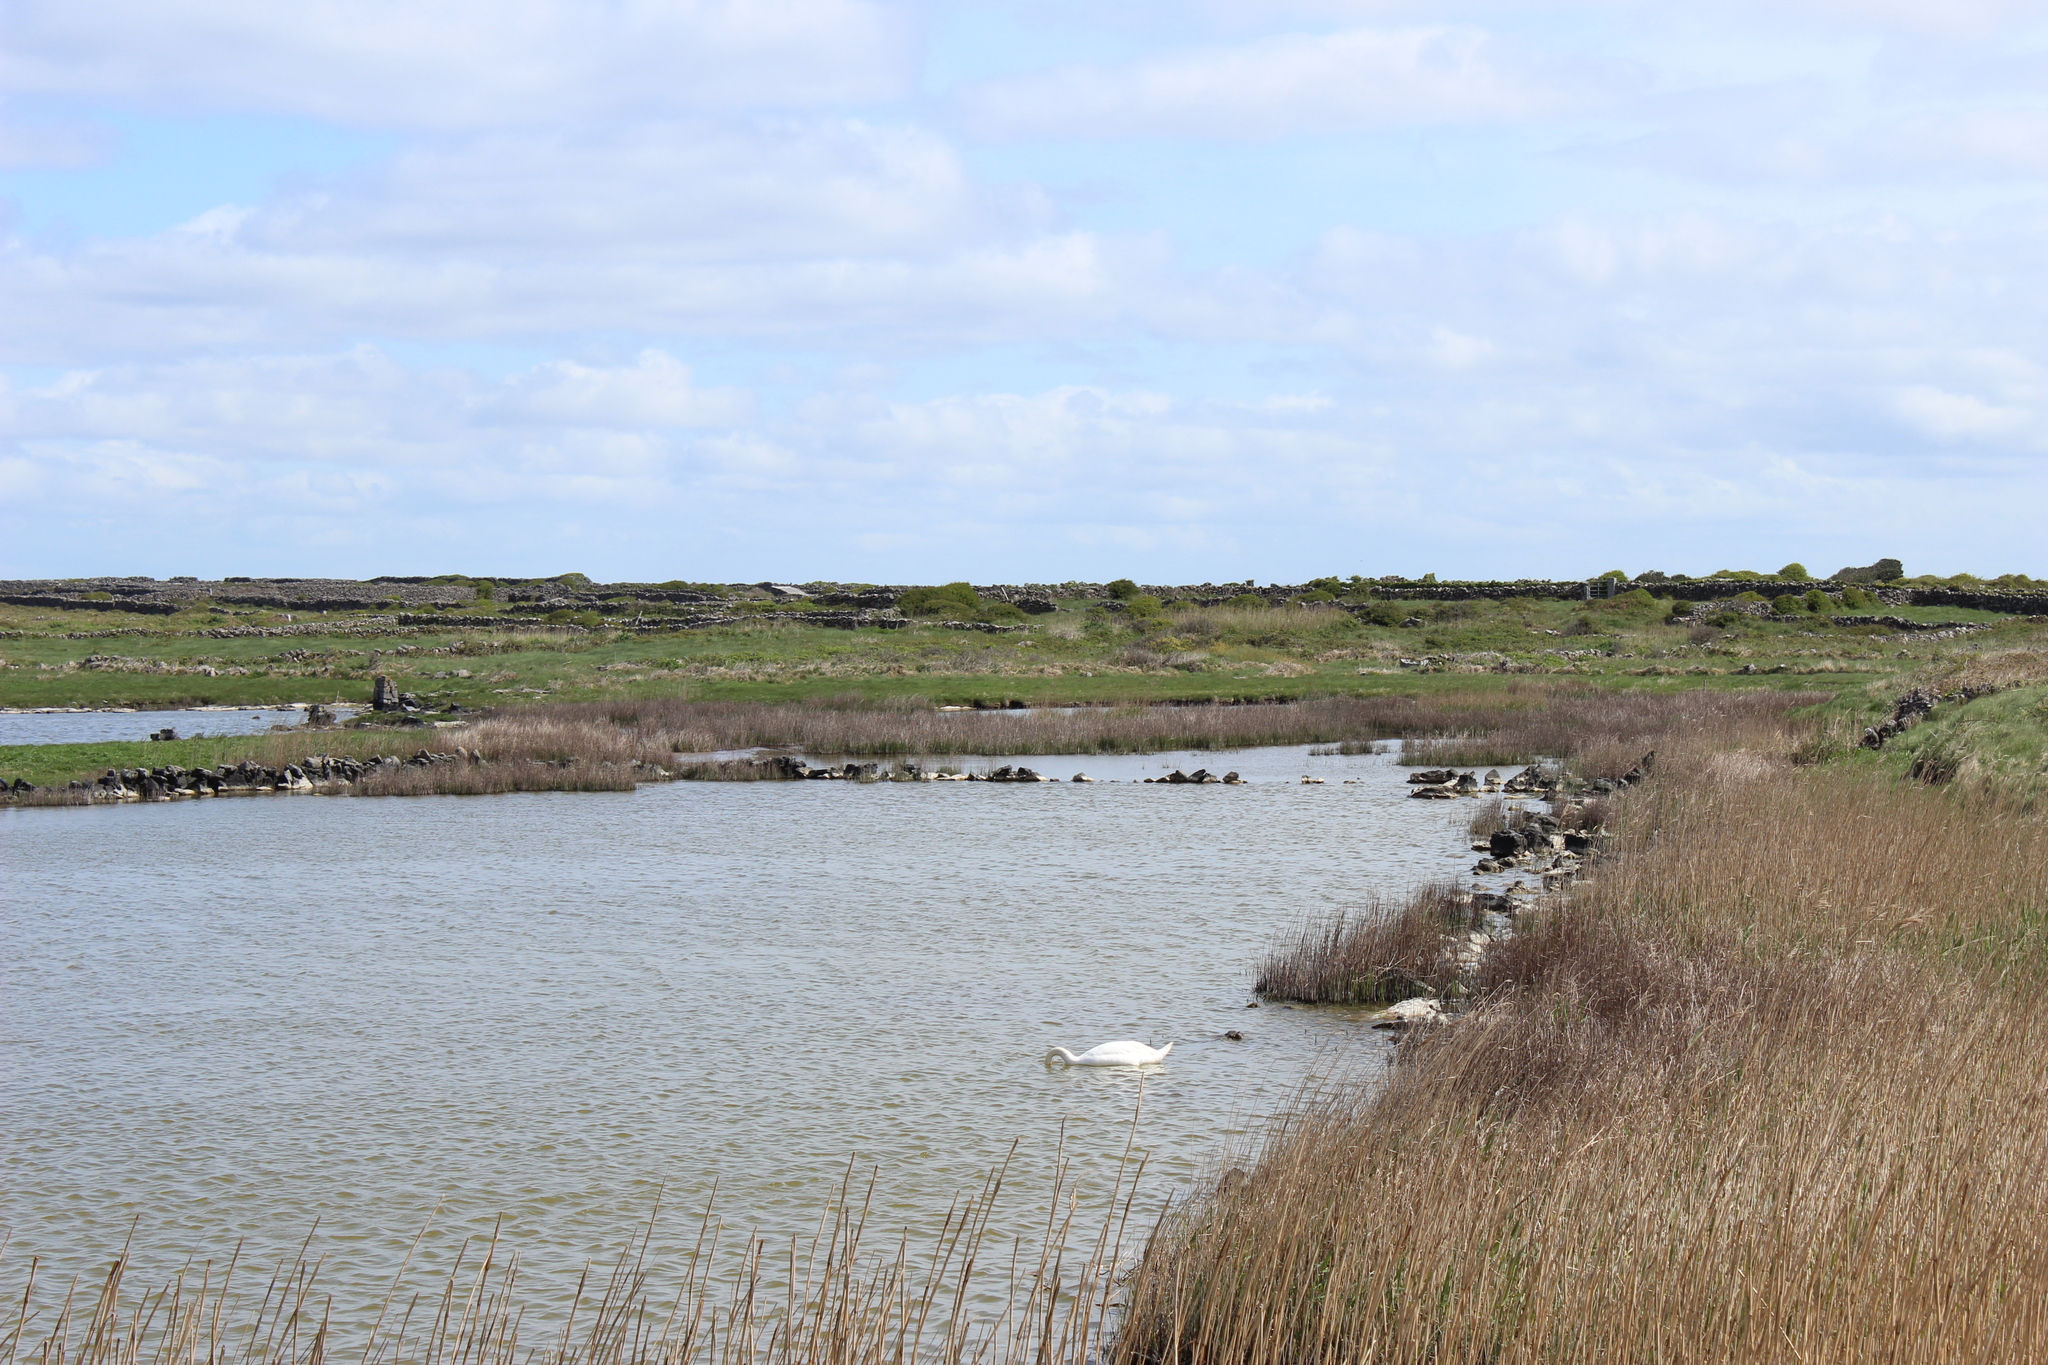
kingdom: Animalia
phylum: Chordata
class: Aves
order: Anseriformes
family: Anatidae
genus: Cygnus
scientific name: Cygnus olor
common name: Mute swan
